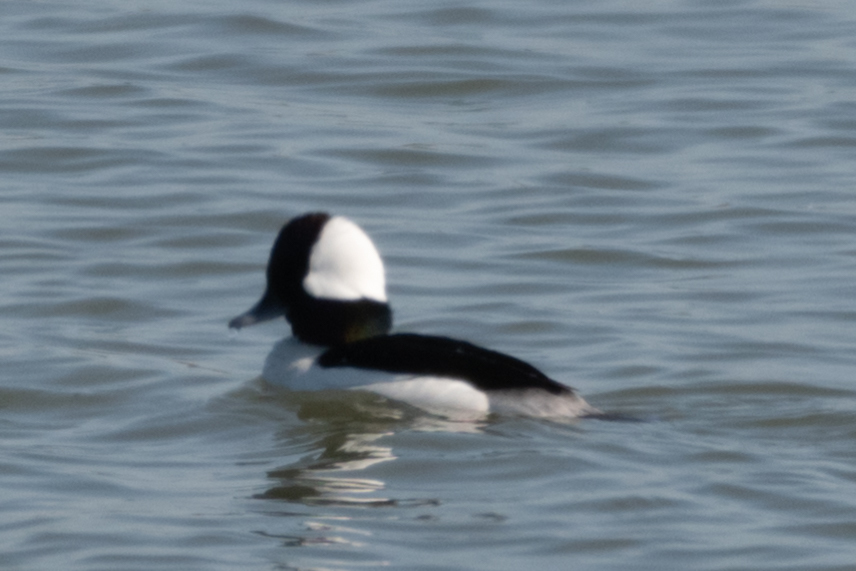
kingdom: Animalia
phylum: Chordata
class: Aves
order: Anseriformes
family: Anatidae
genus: Bucephala
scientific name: Bucephala albeola
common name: Bufflehead
